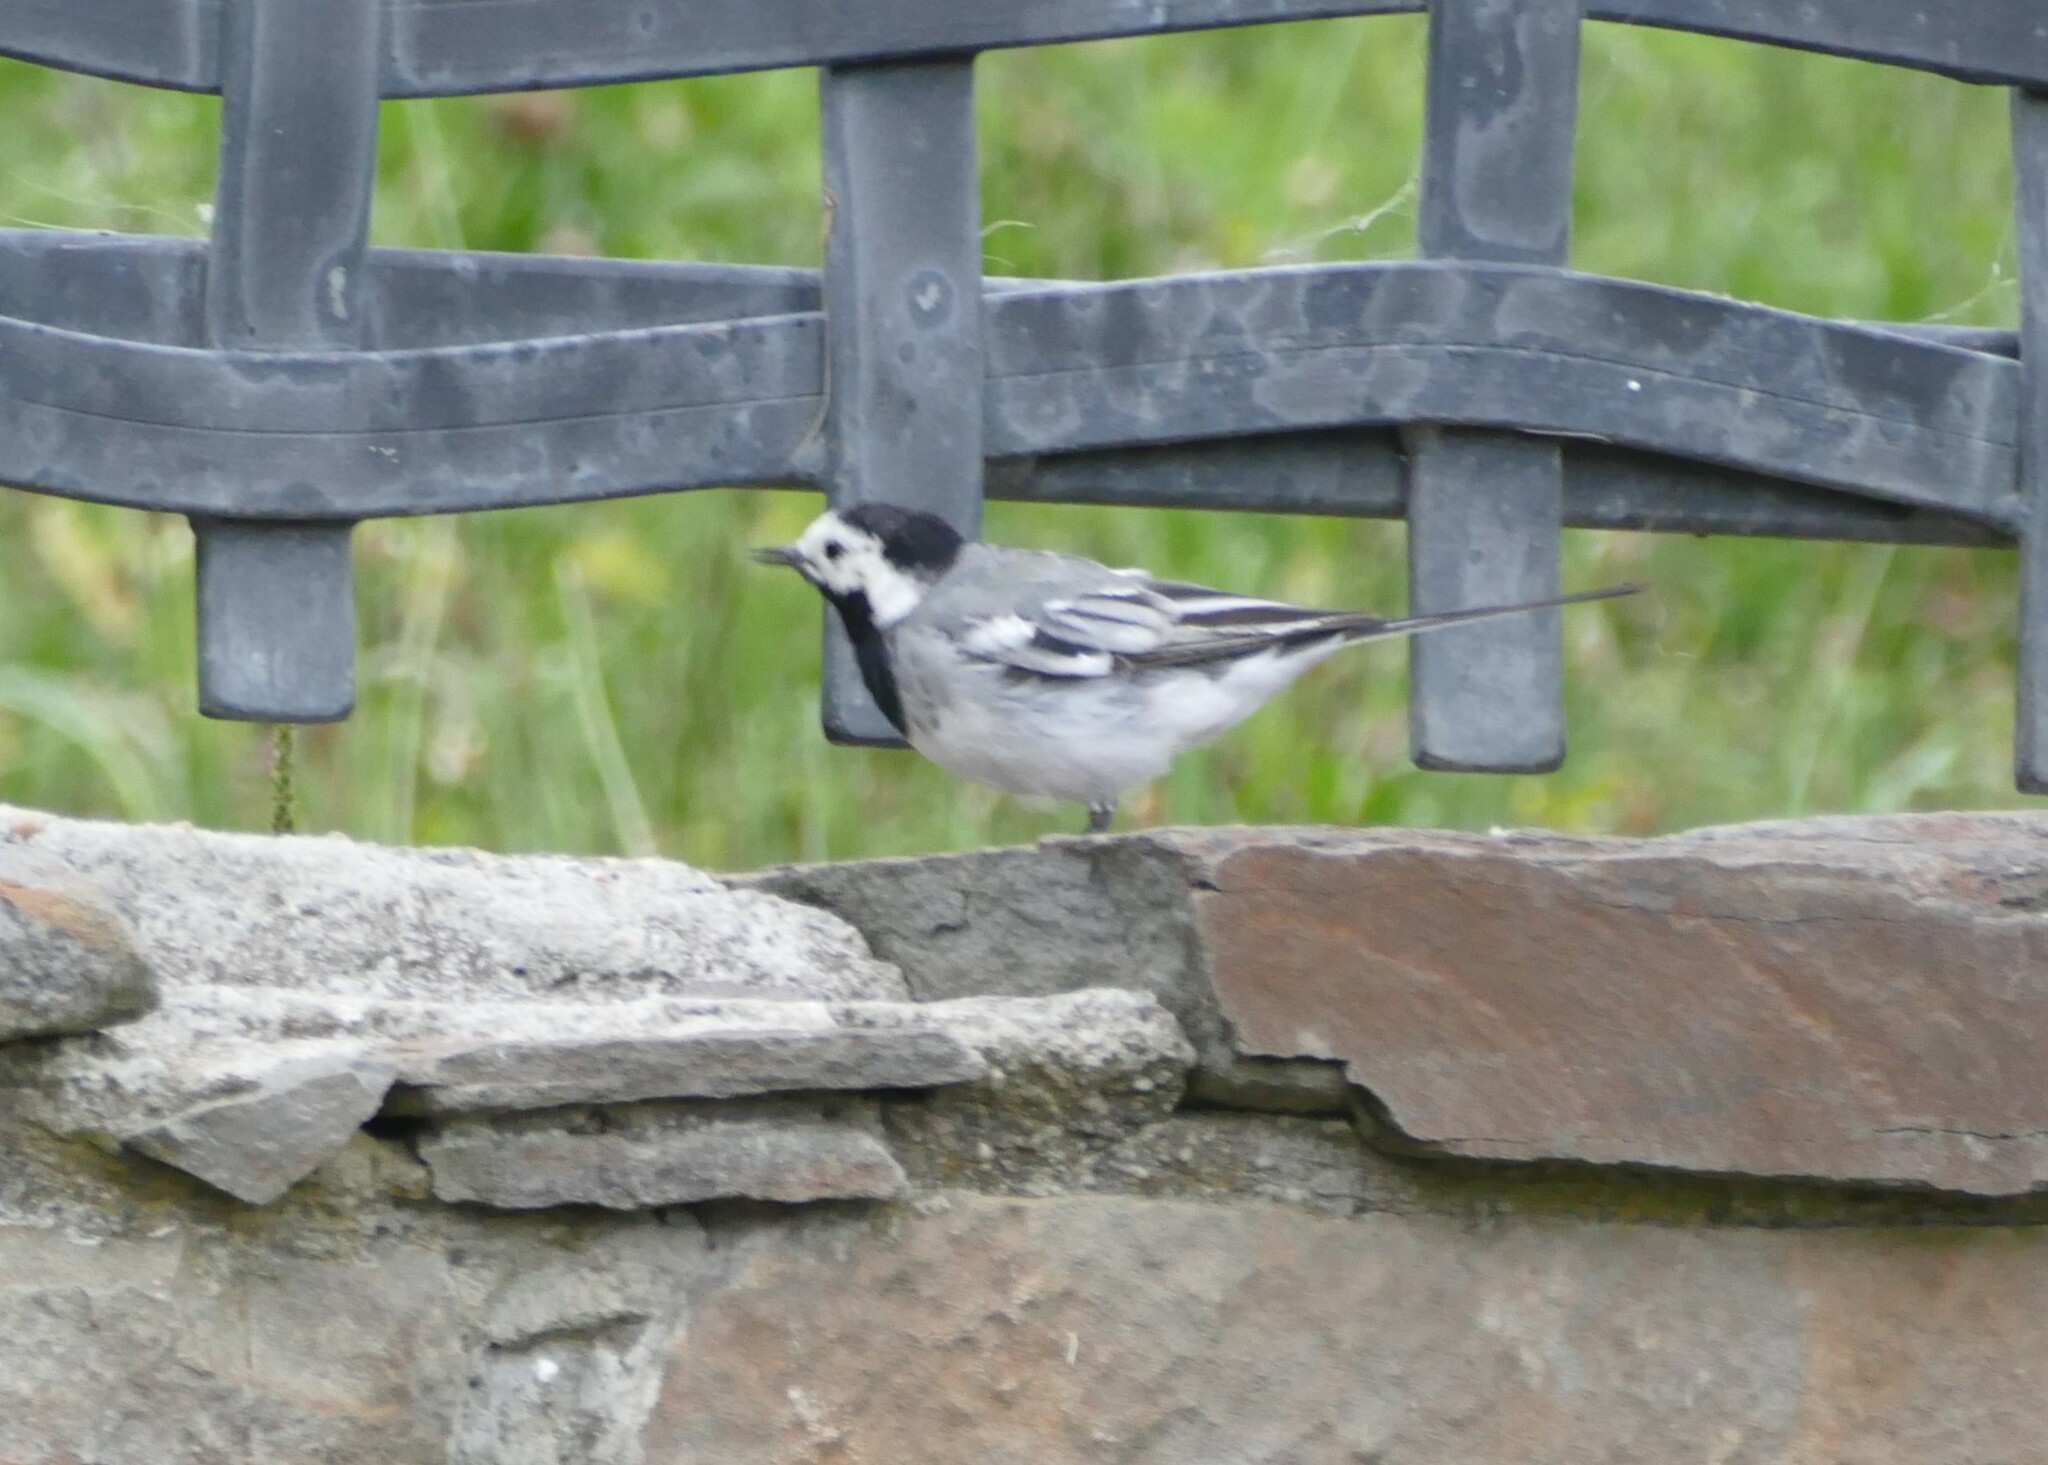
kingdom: Animalia
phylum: Chordata
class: Aves
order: Passeriformes
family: Motacillidae
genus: Motacilla
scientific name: Motacilla alba
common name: White wagtail
